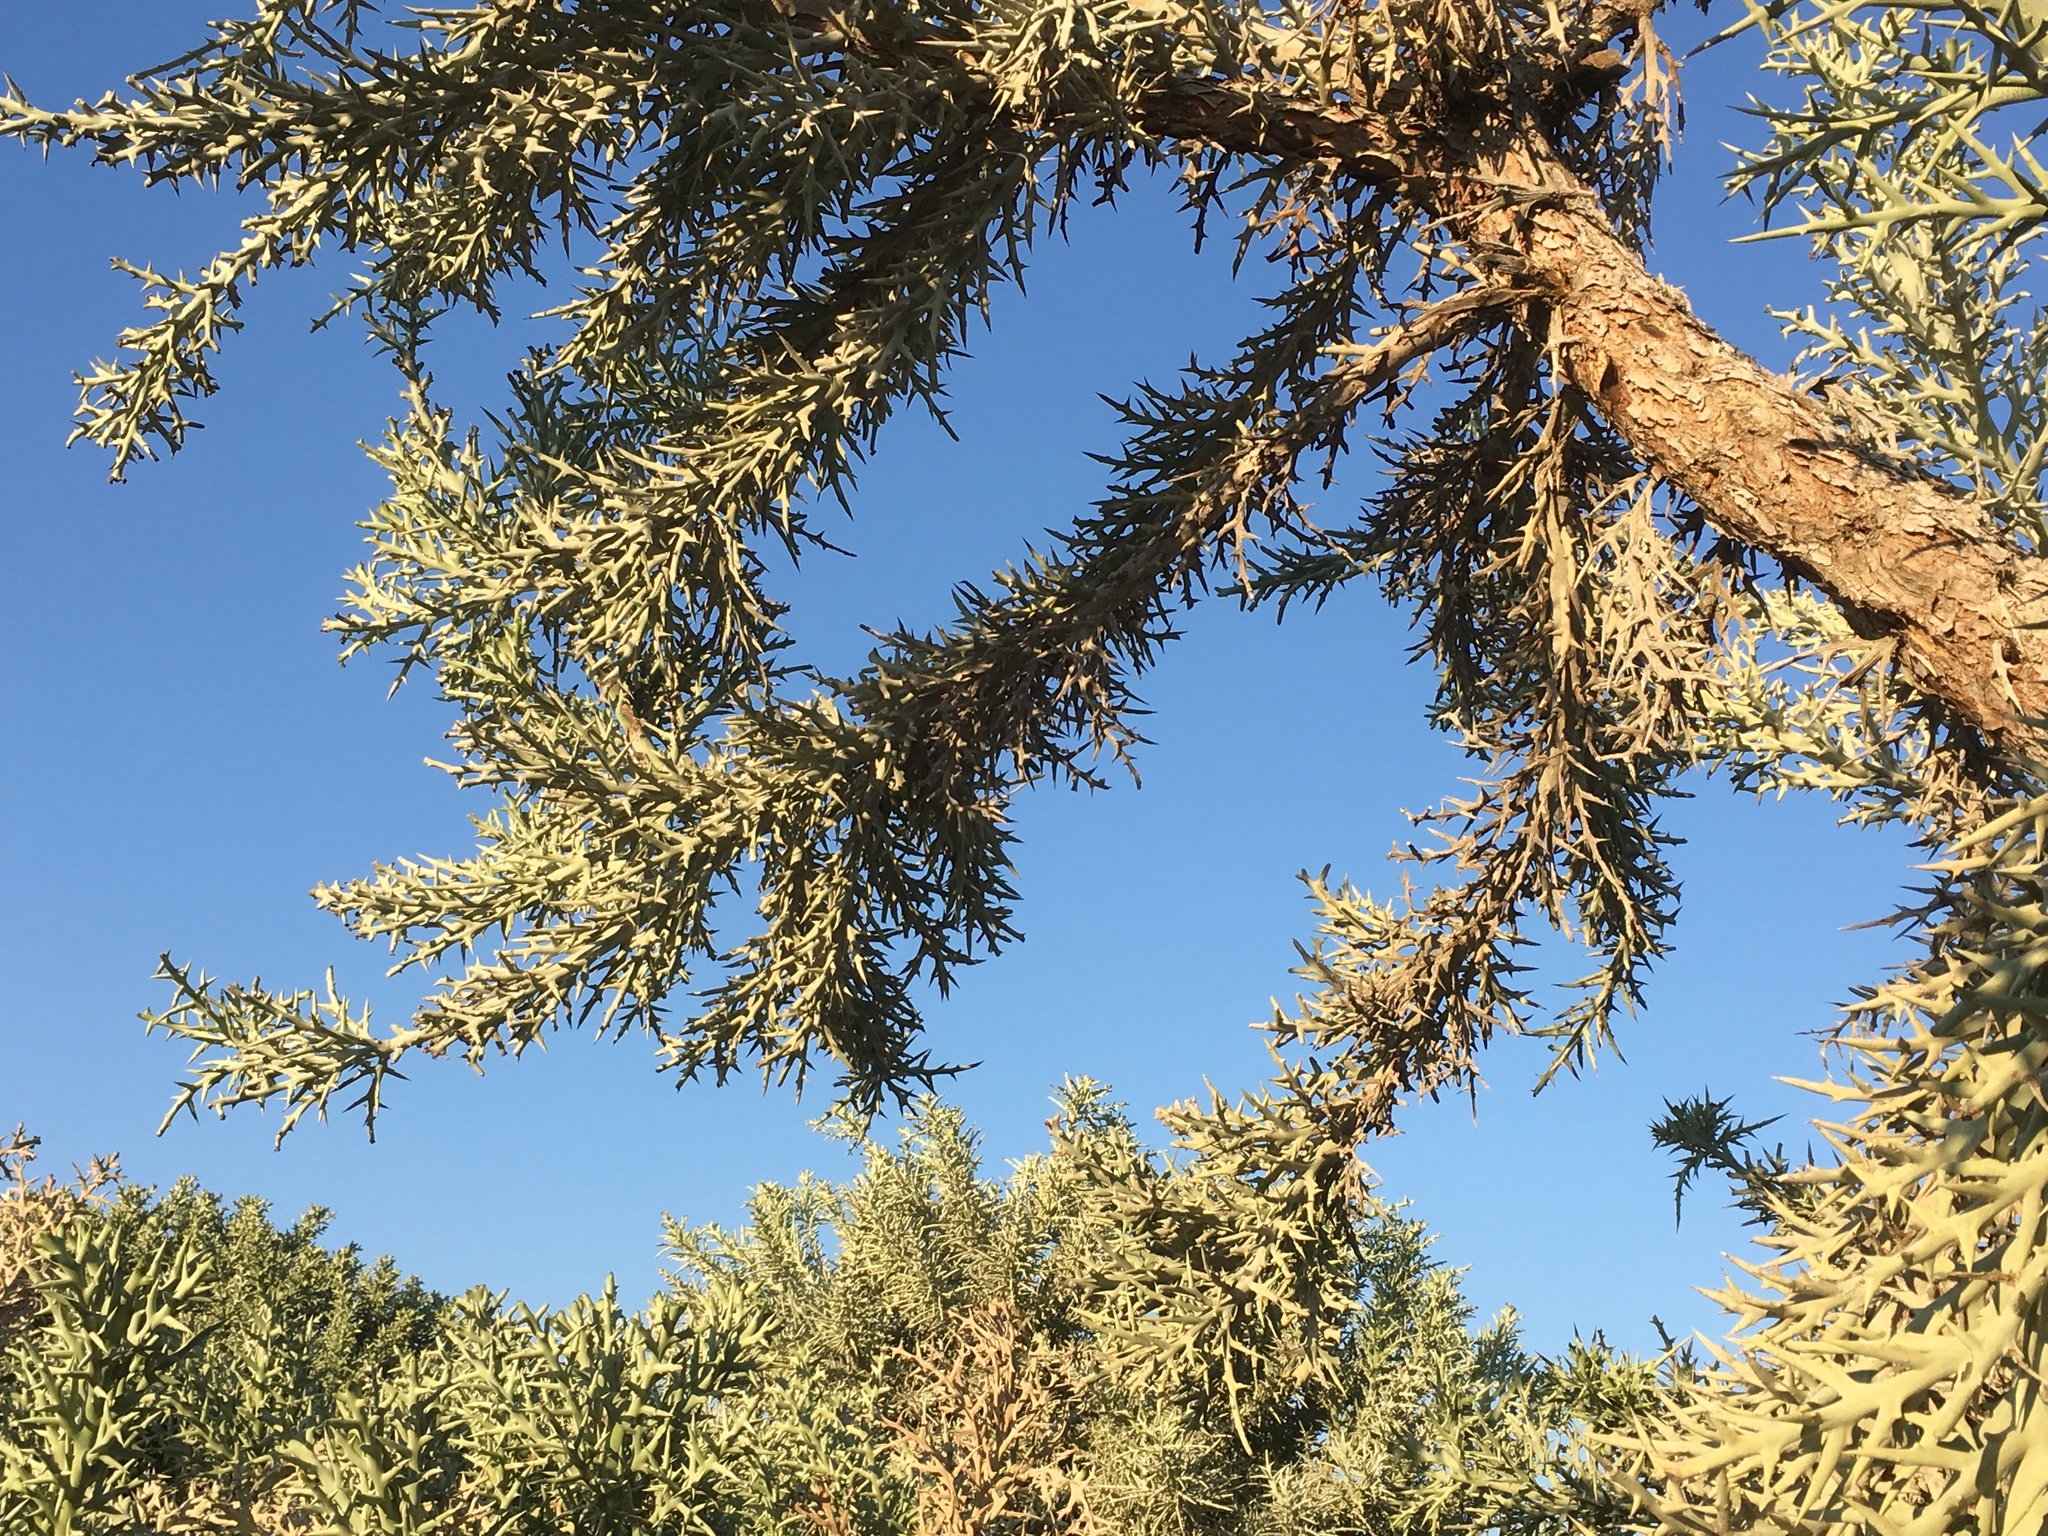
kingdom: Plantae
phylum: Tracheophyta
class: Magnoliopsida
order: Malpighiales
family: Euphorbiaceae
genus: Euphorbia
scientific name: Euphorbia stenoclada
